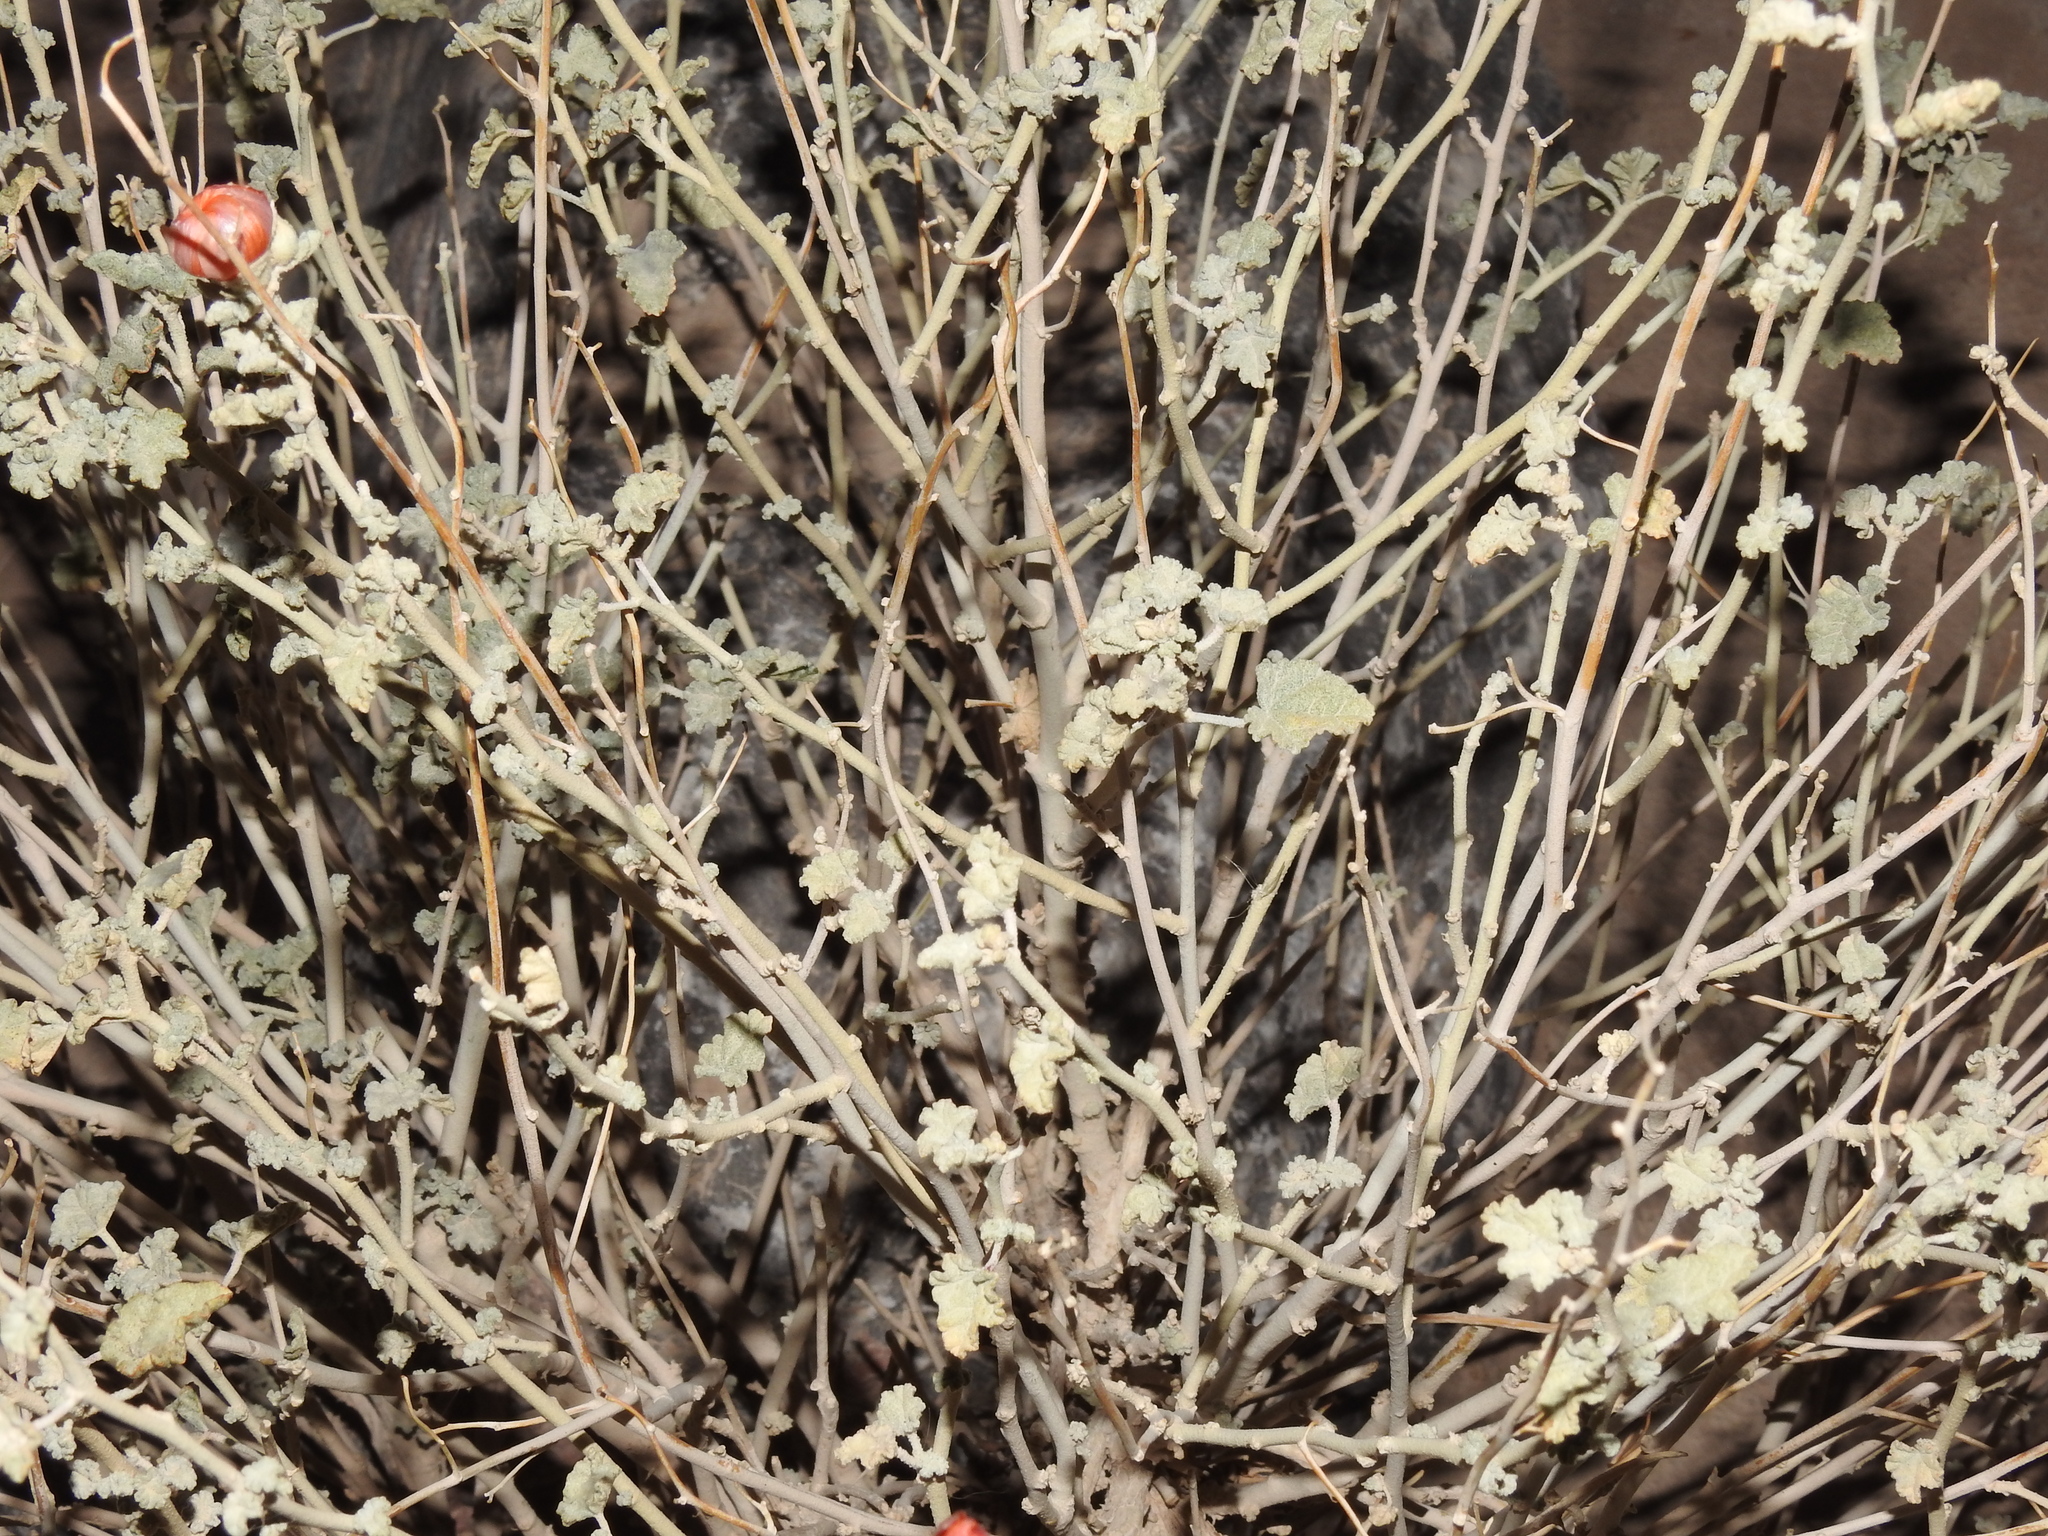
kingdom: Plantae
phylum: Tracheophyta
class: Magnoliopsida
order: Malvales
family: Malvaceae
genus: Sphaeralcea
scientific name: Sphaeralcea ambigua
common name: Apricot globe-mallow
